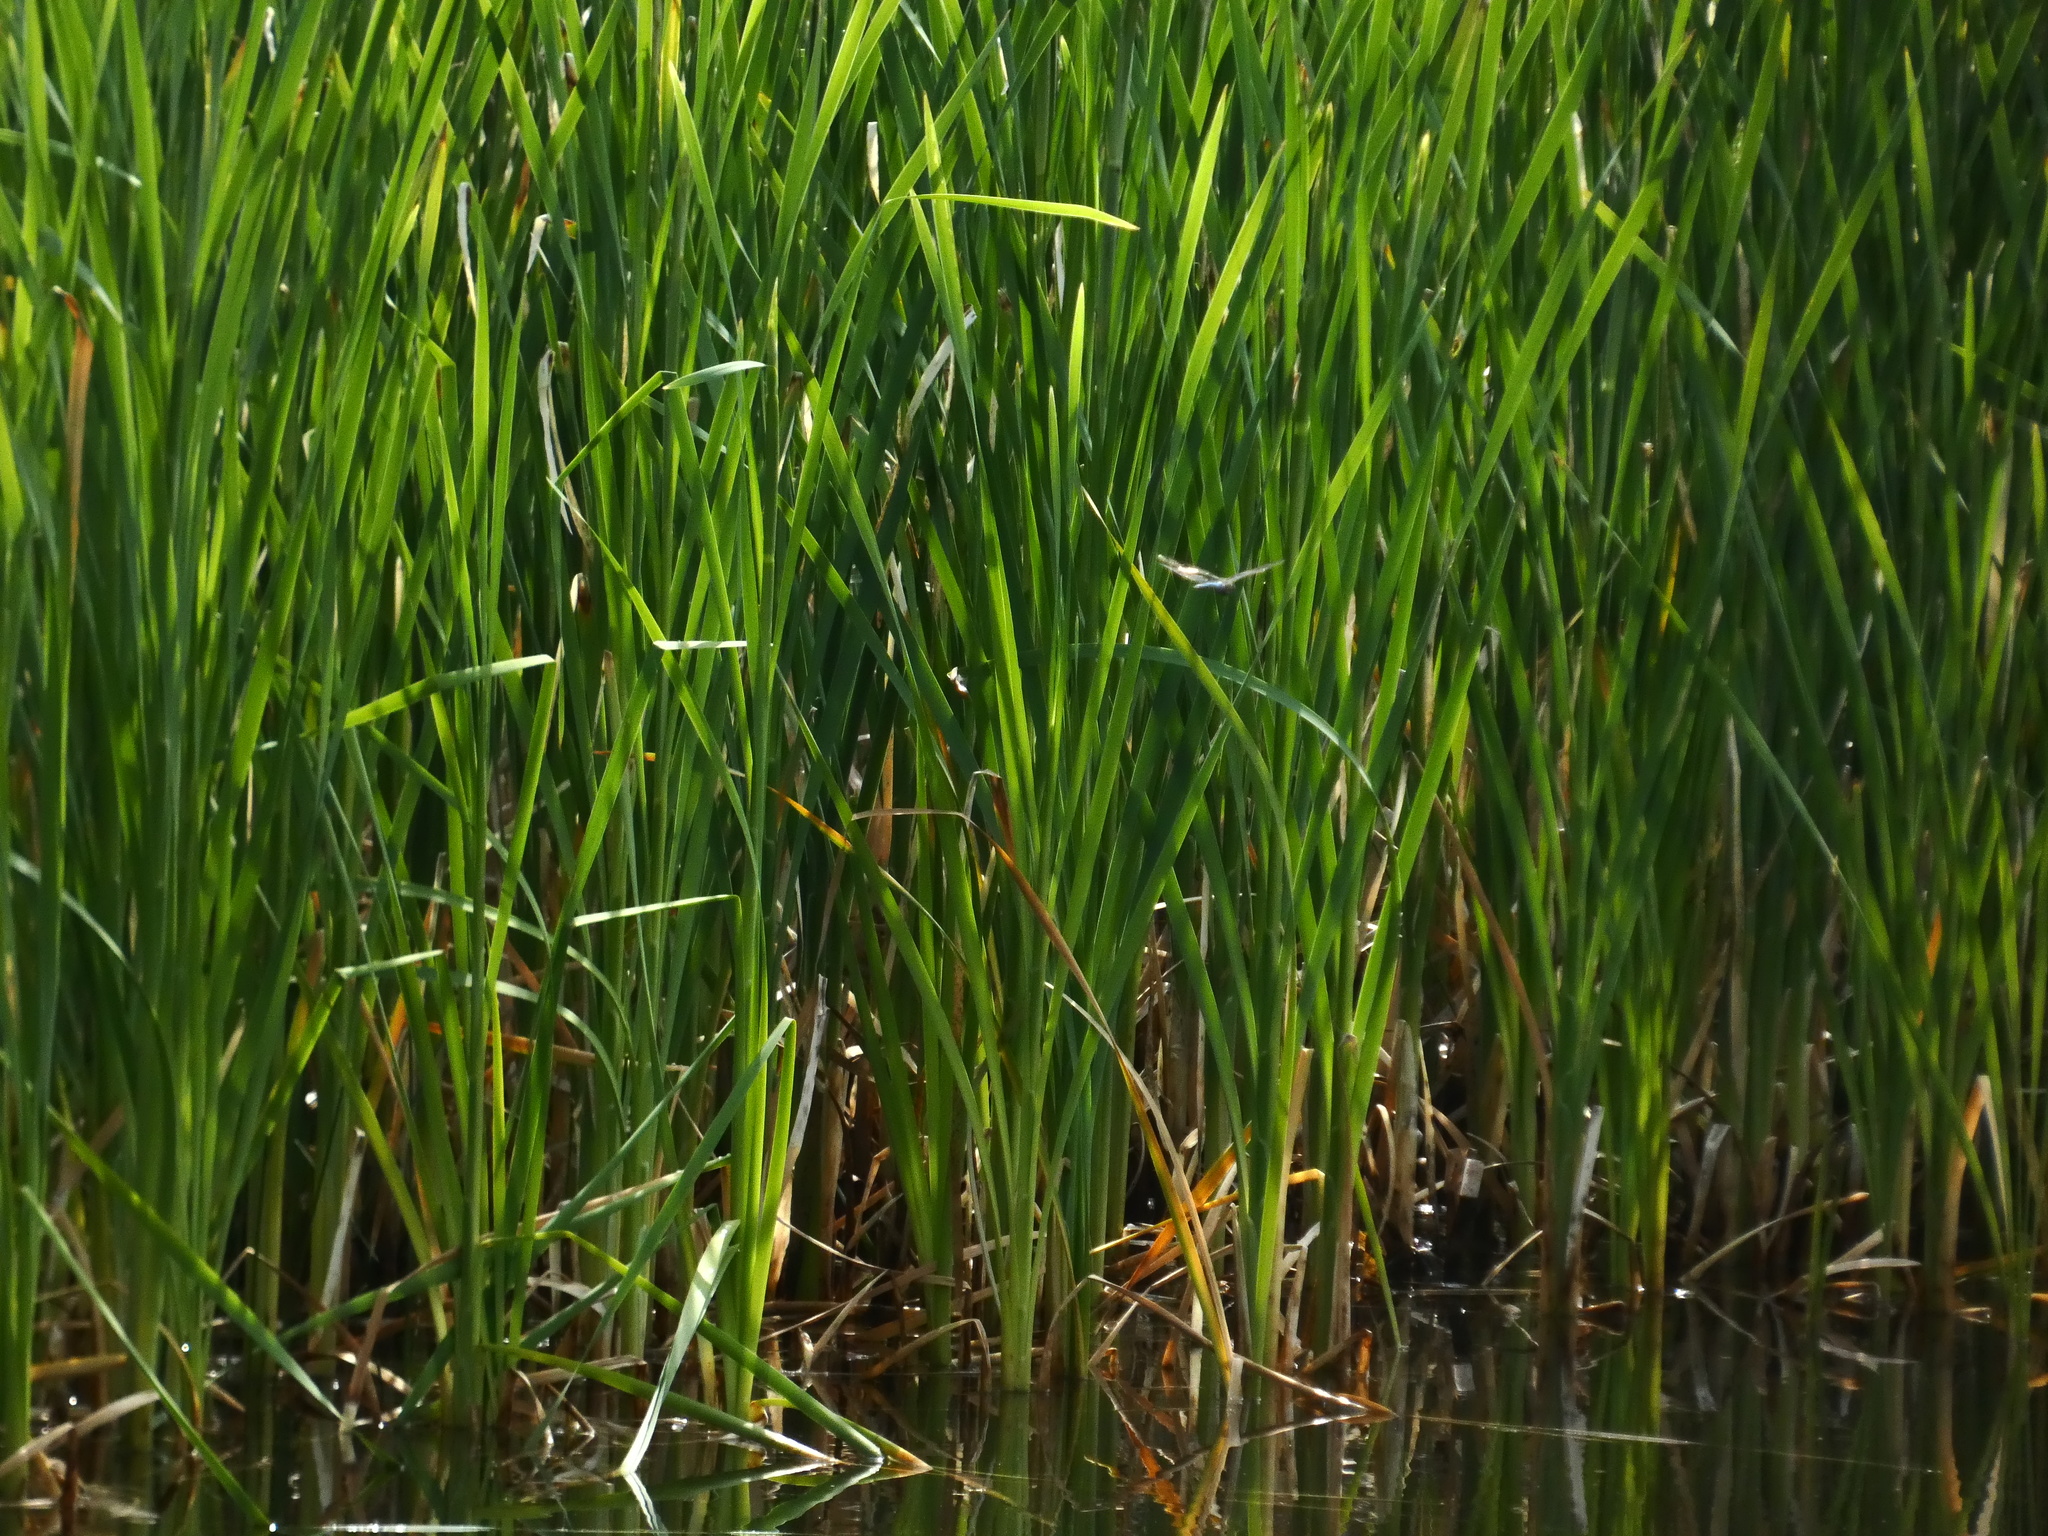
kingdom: Animalia
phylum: Arthropoda
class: Insecta
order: Odonata
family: Aeshnidae
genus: Anax
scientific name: Anax imperator
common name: Emperor dragonfly
